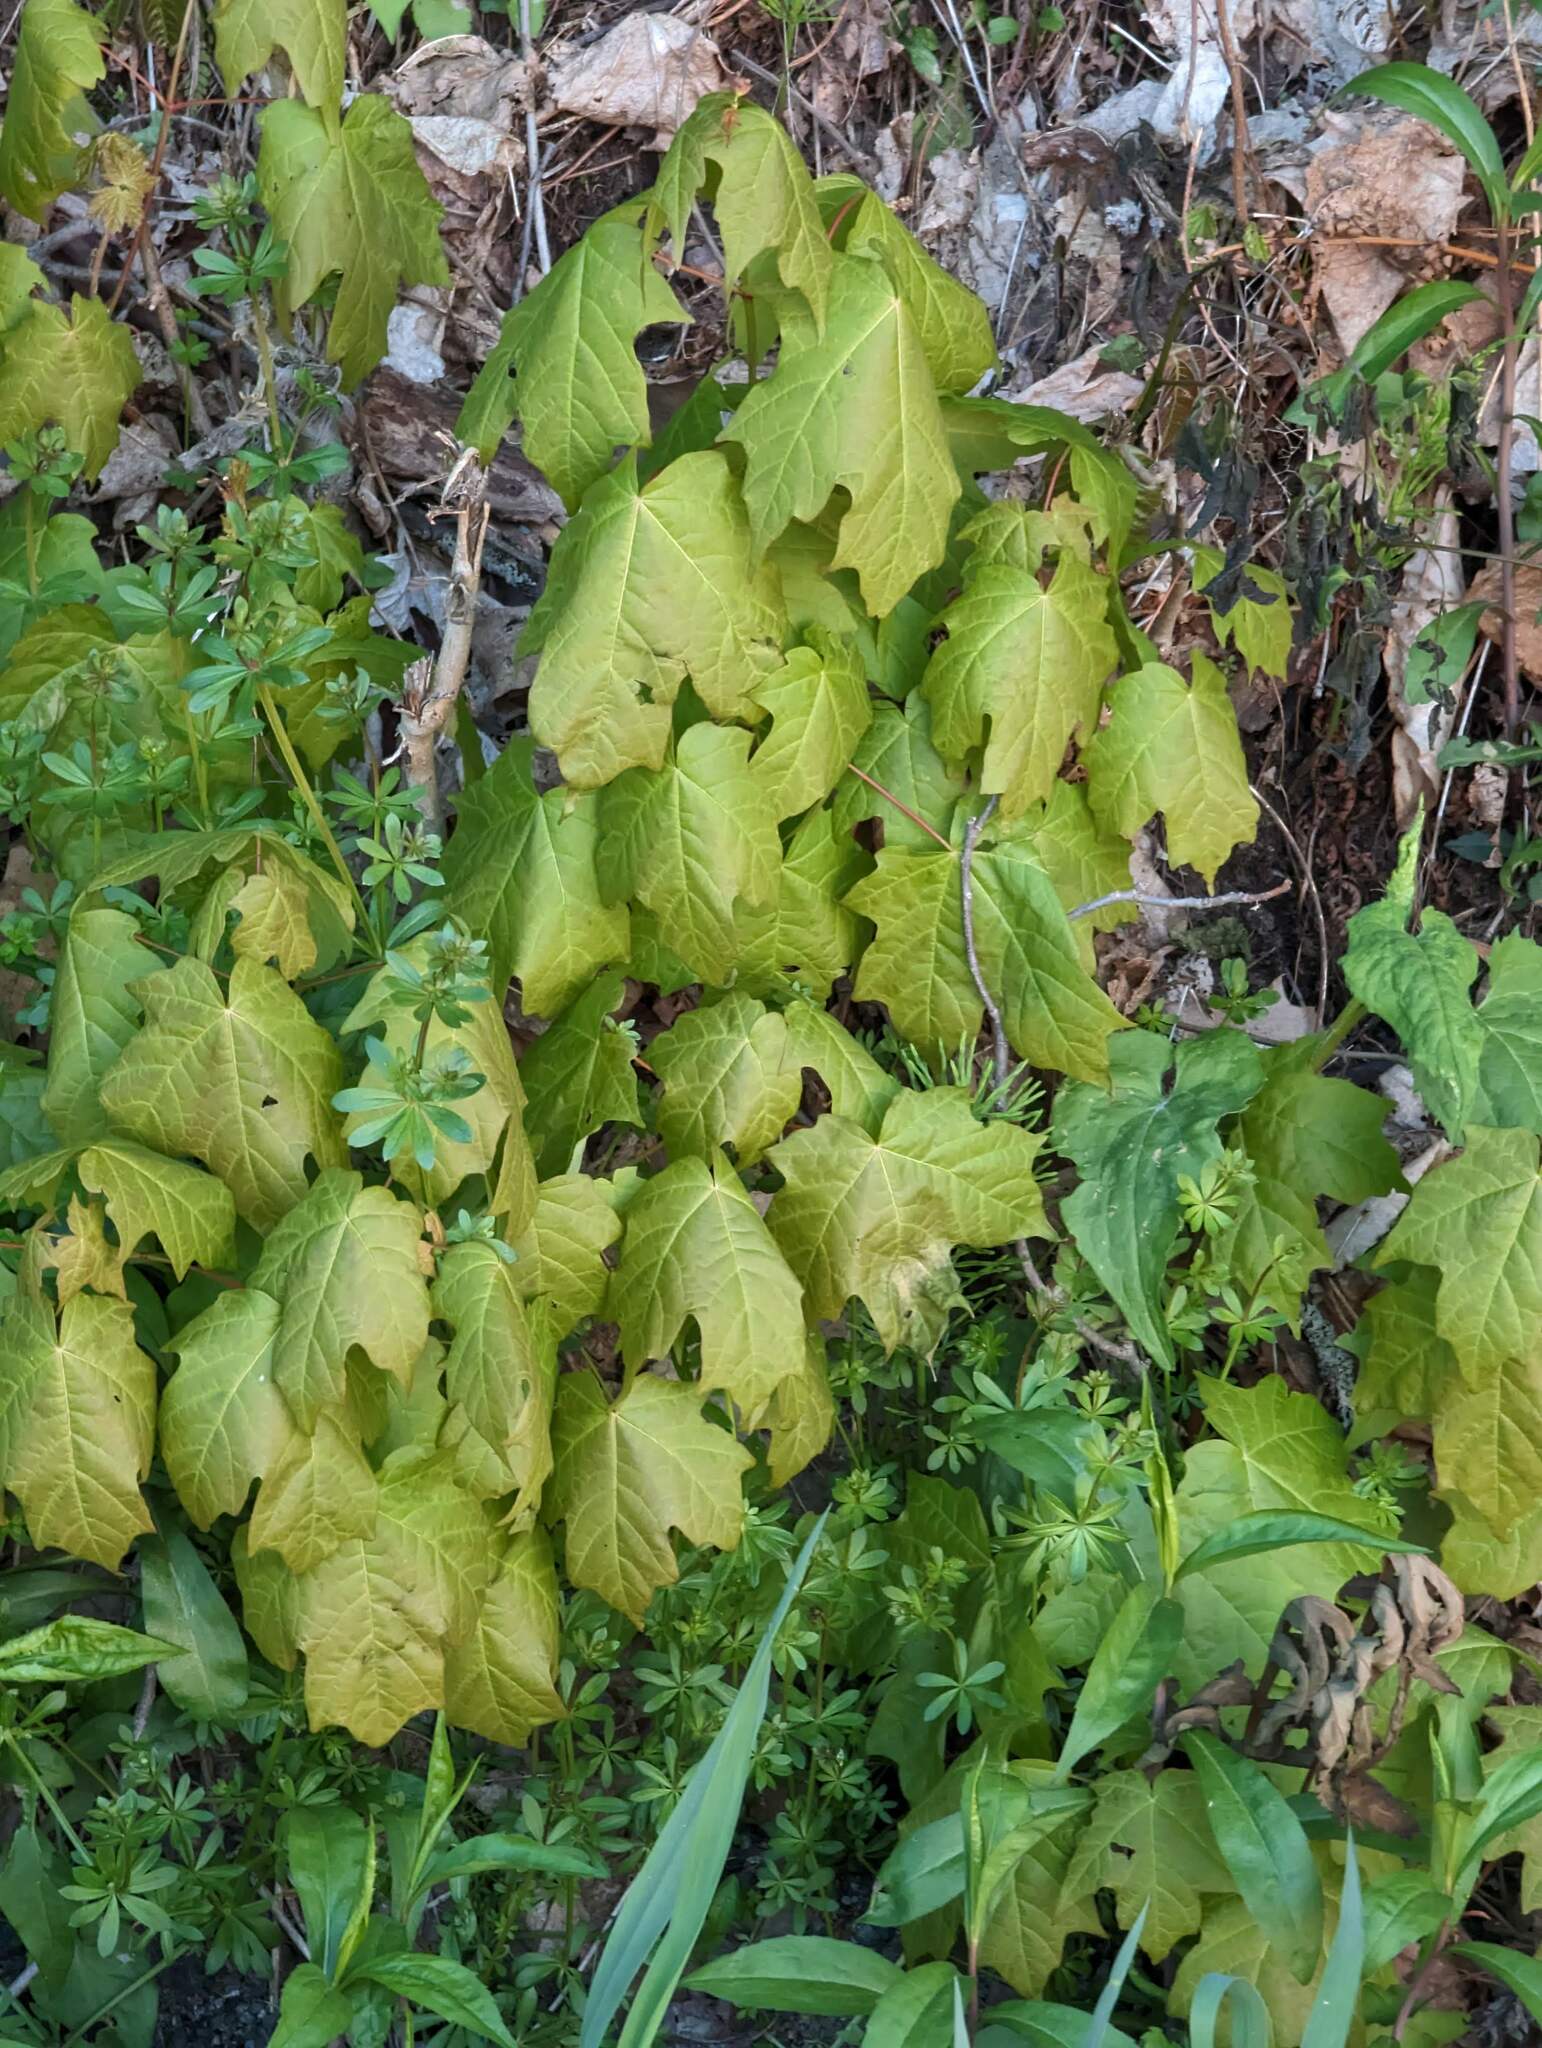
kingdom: Plantae
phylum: Tracheophyta
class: Magnoliopsida
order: Sapindales
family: Sapindaceae
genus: Acer
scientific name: Acer saccharum
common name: Sugar maple
